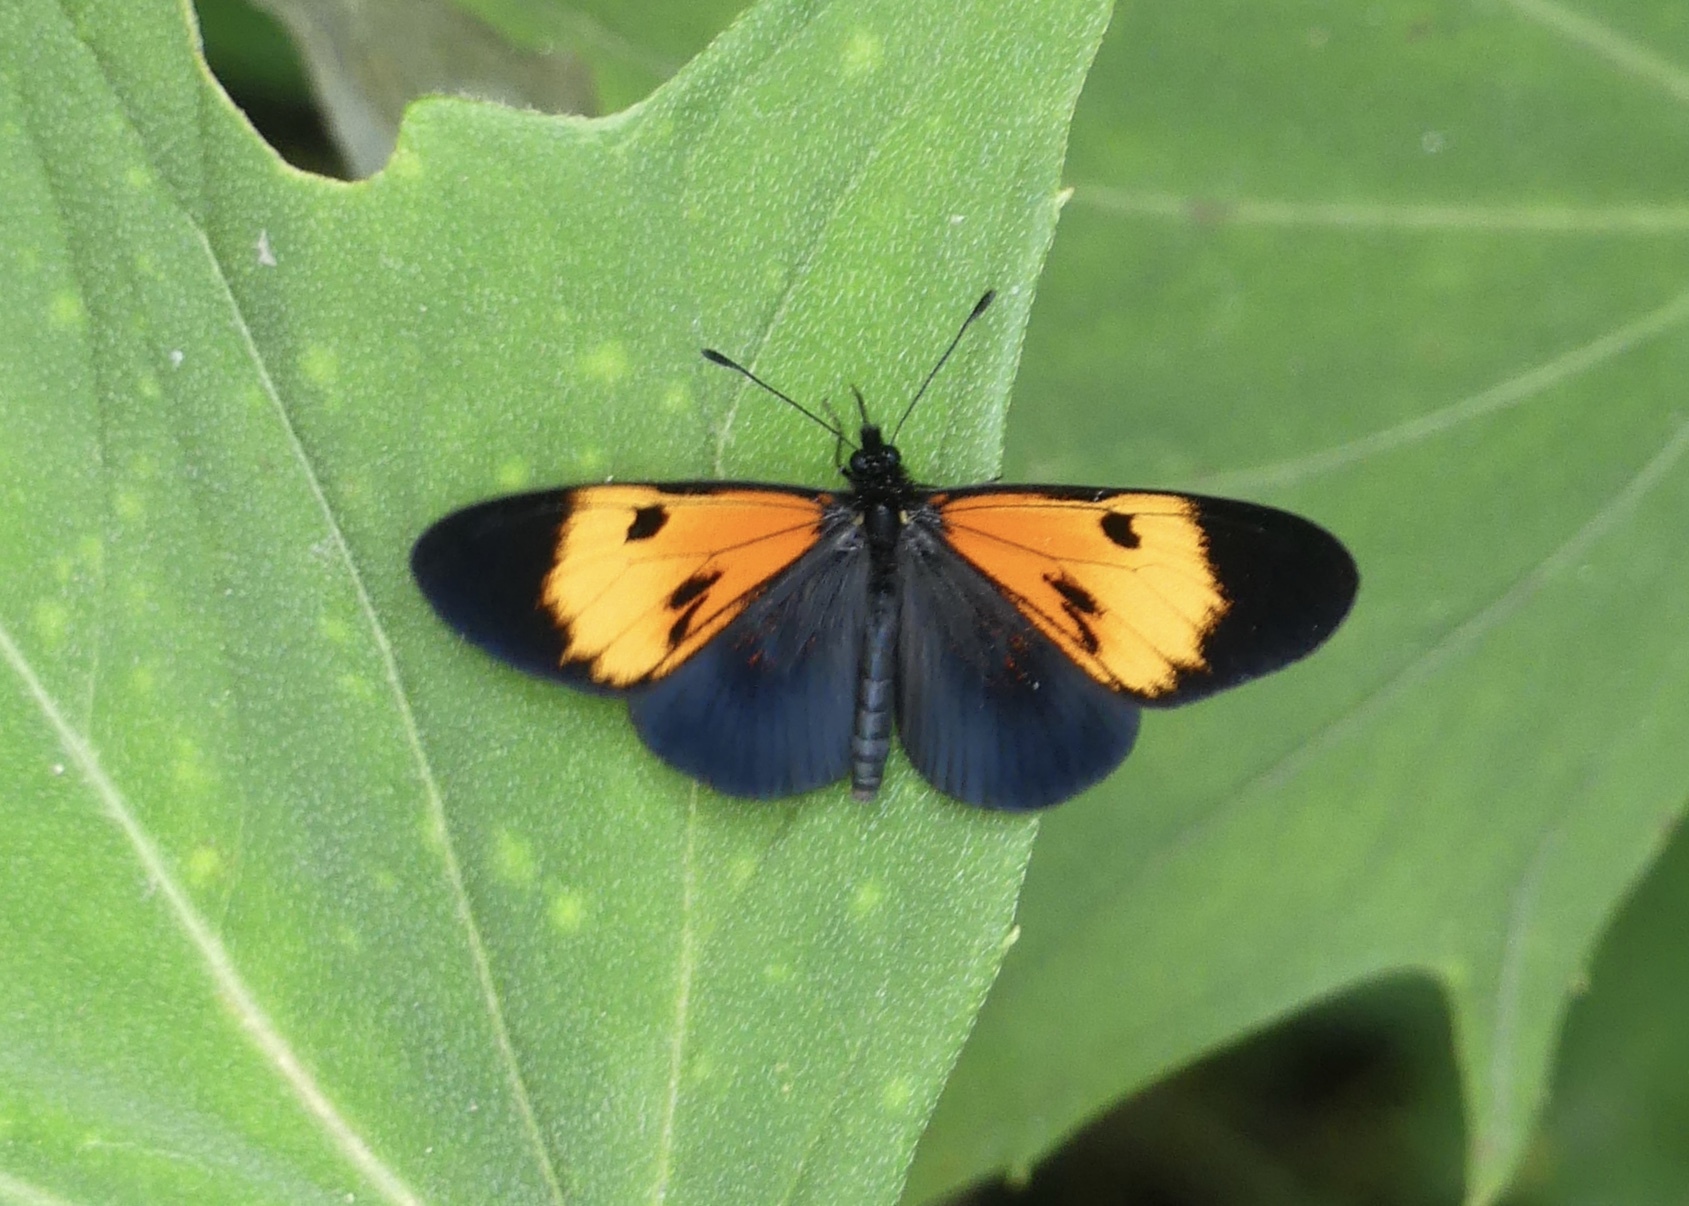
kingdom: Animalia
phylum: Arthropoda
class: Insecta
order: Lepidoptera
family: Nymphalidae
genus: Actinote
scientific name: Actinote stratonice
